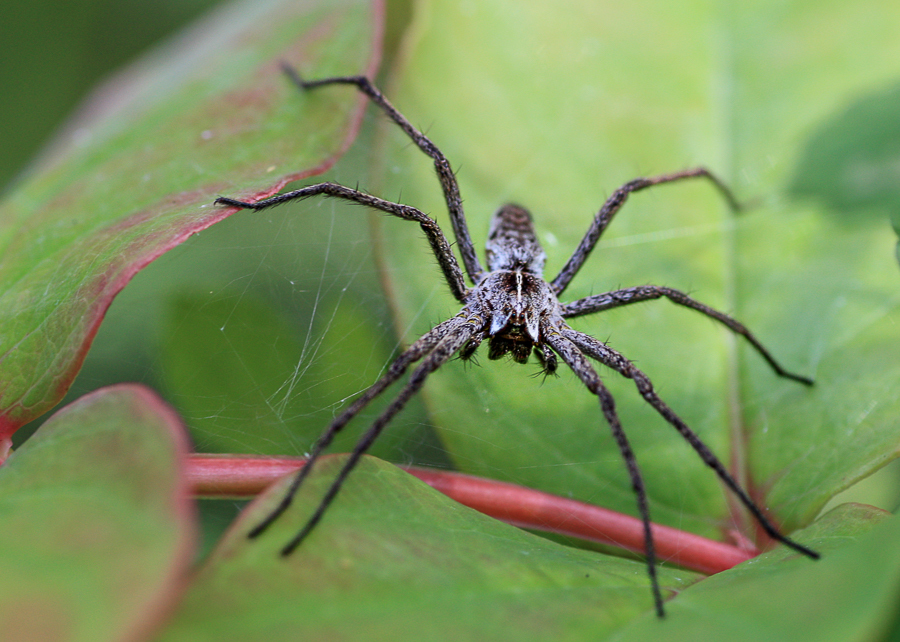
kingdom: Animalia
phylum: Arthropoda
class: Arachnida
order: Araneae
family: Pisauridae
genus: Pisaura
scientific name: Pisaura mirabilis
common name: Tent spider
